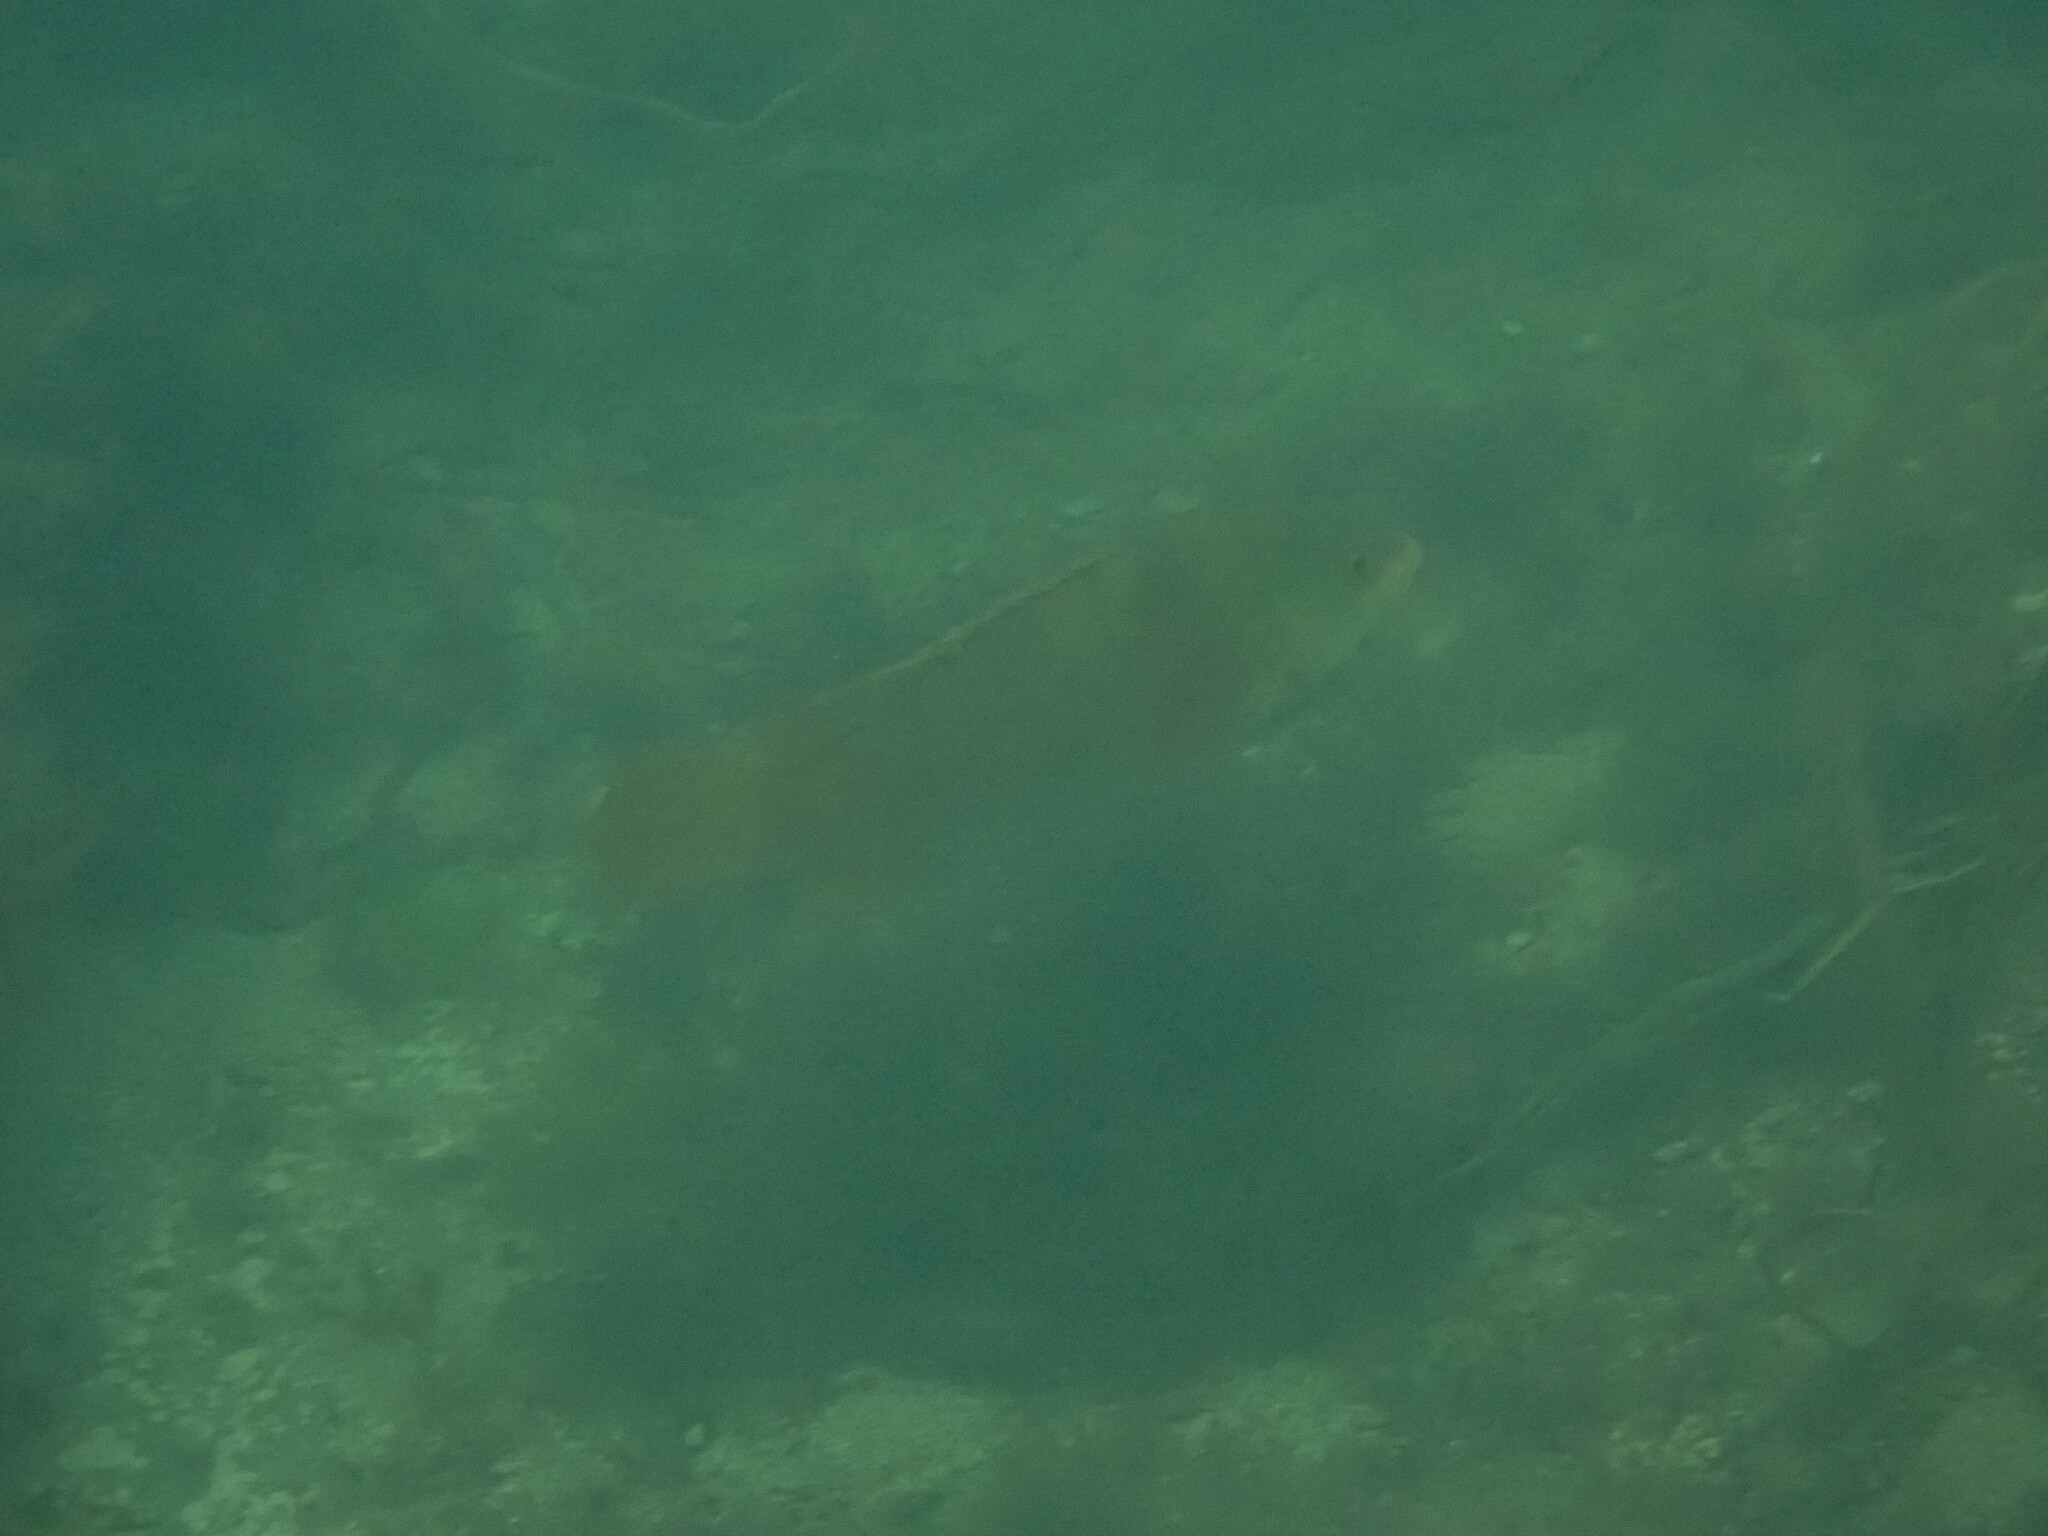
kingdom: Animalia
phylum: Chordata
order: Perciformes
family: Labridae
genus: Labrus
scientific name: Labrus bergylta
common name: Ballan wrasse
